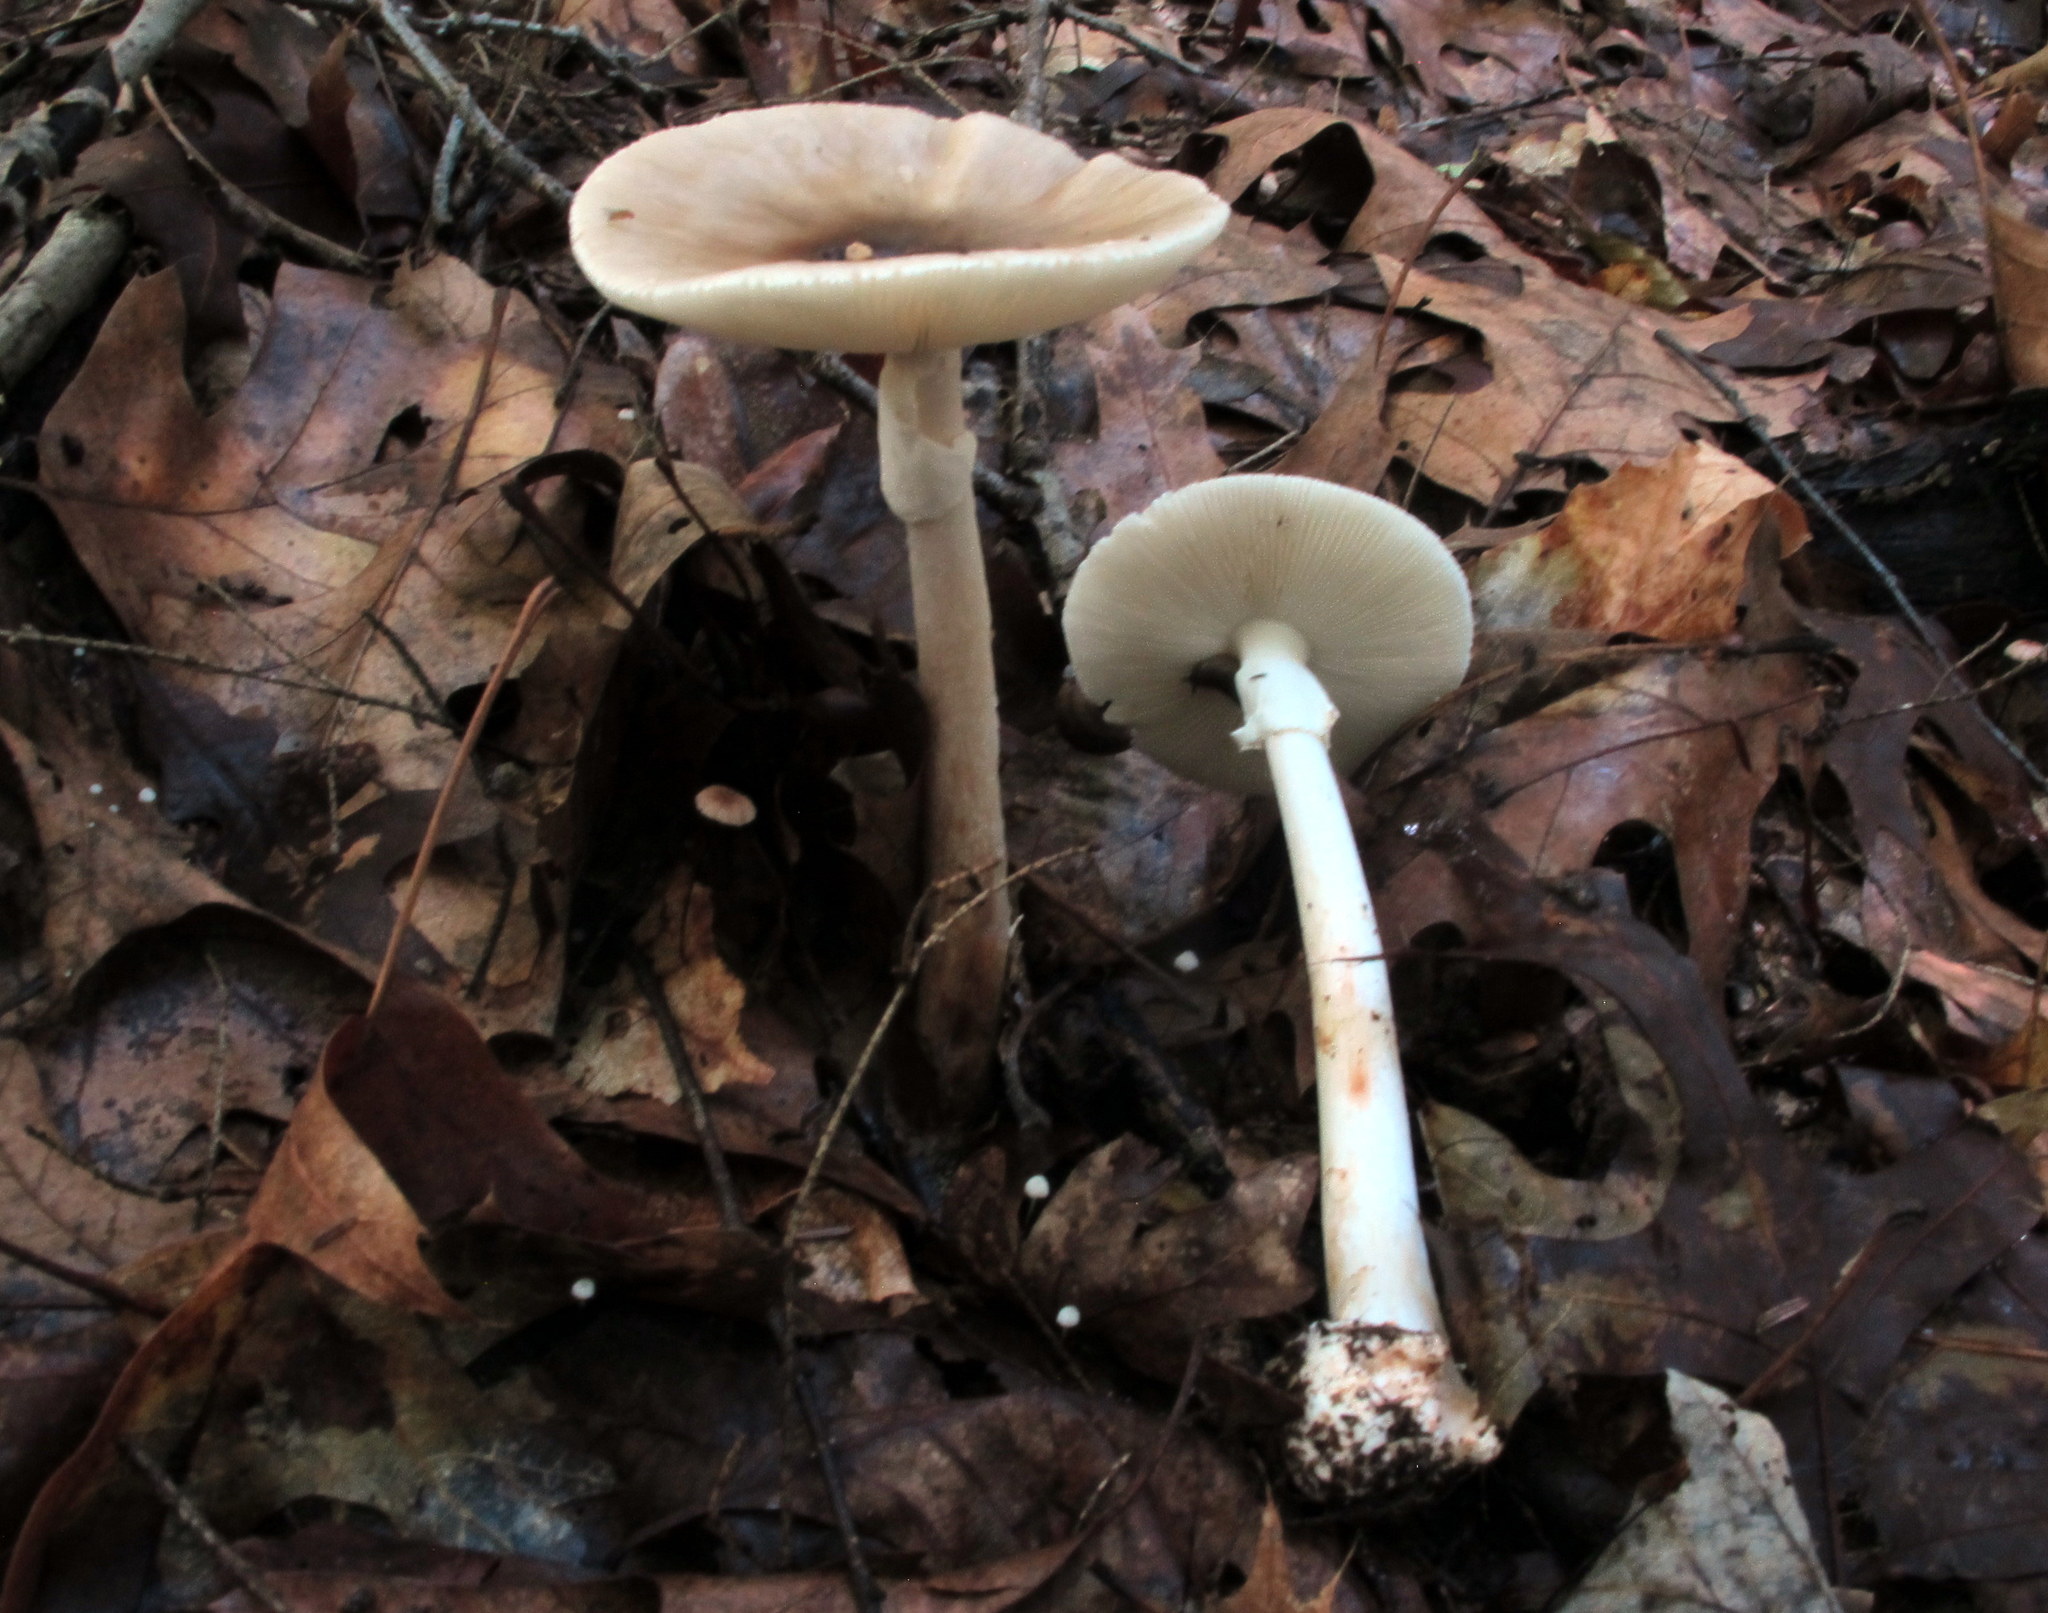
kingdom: Fungi
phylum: Basidiomycota
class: Agaricomycetes
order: Agaricales
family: Amanitaceae
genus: Amanita
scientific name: Amanita brunnescens
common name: Brown american star-footed amanita
